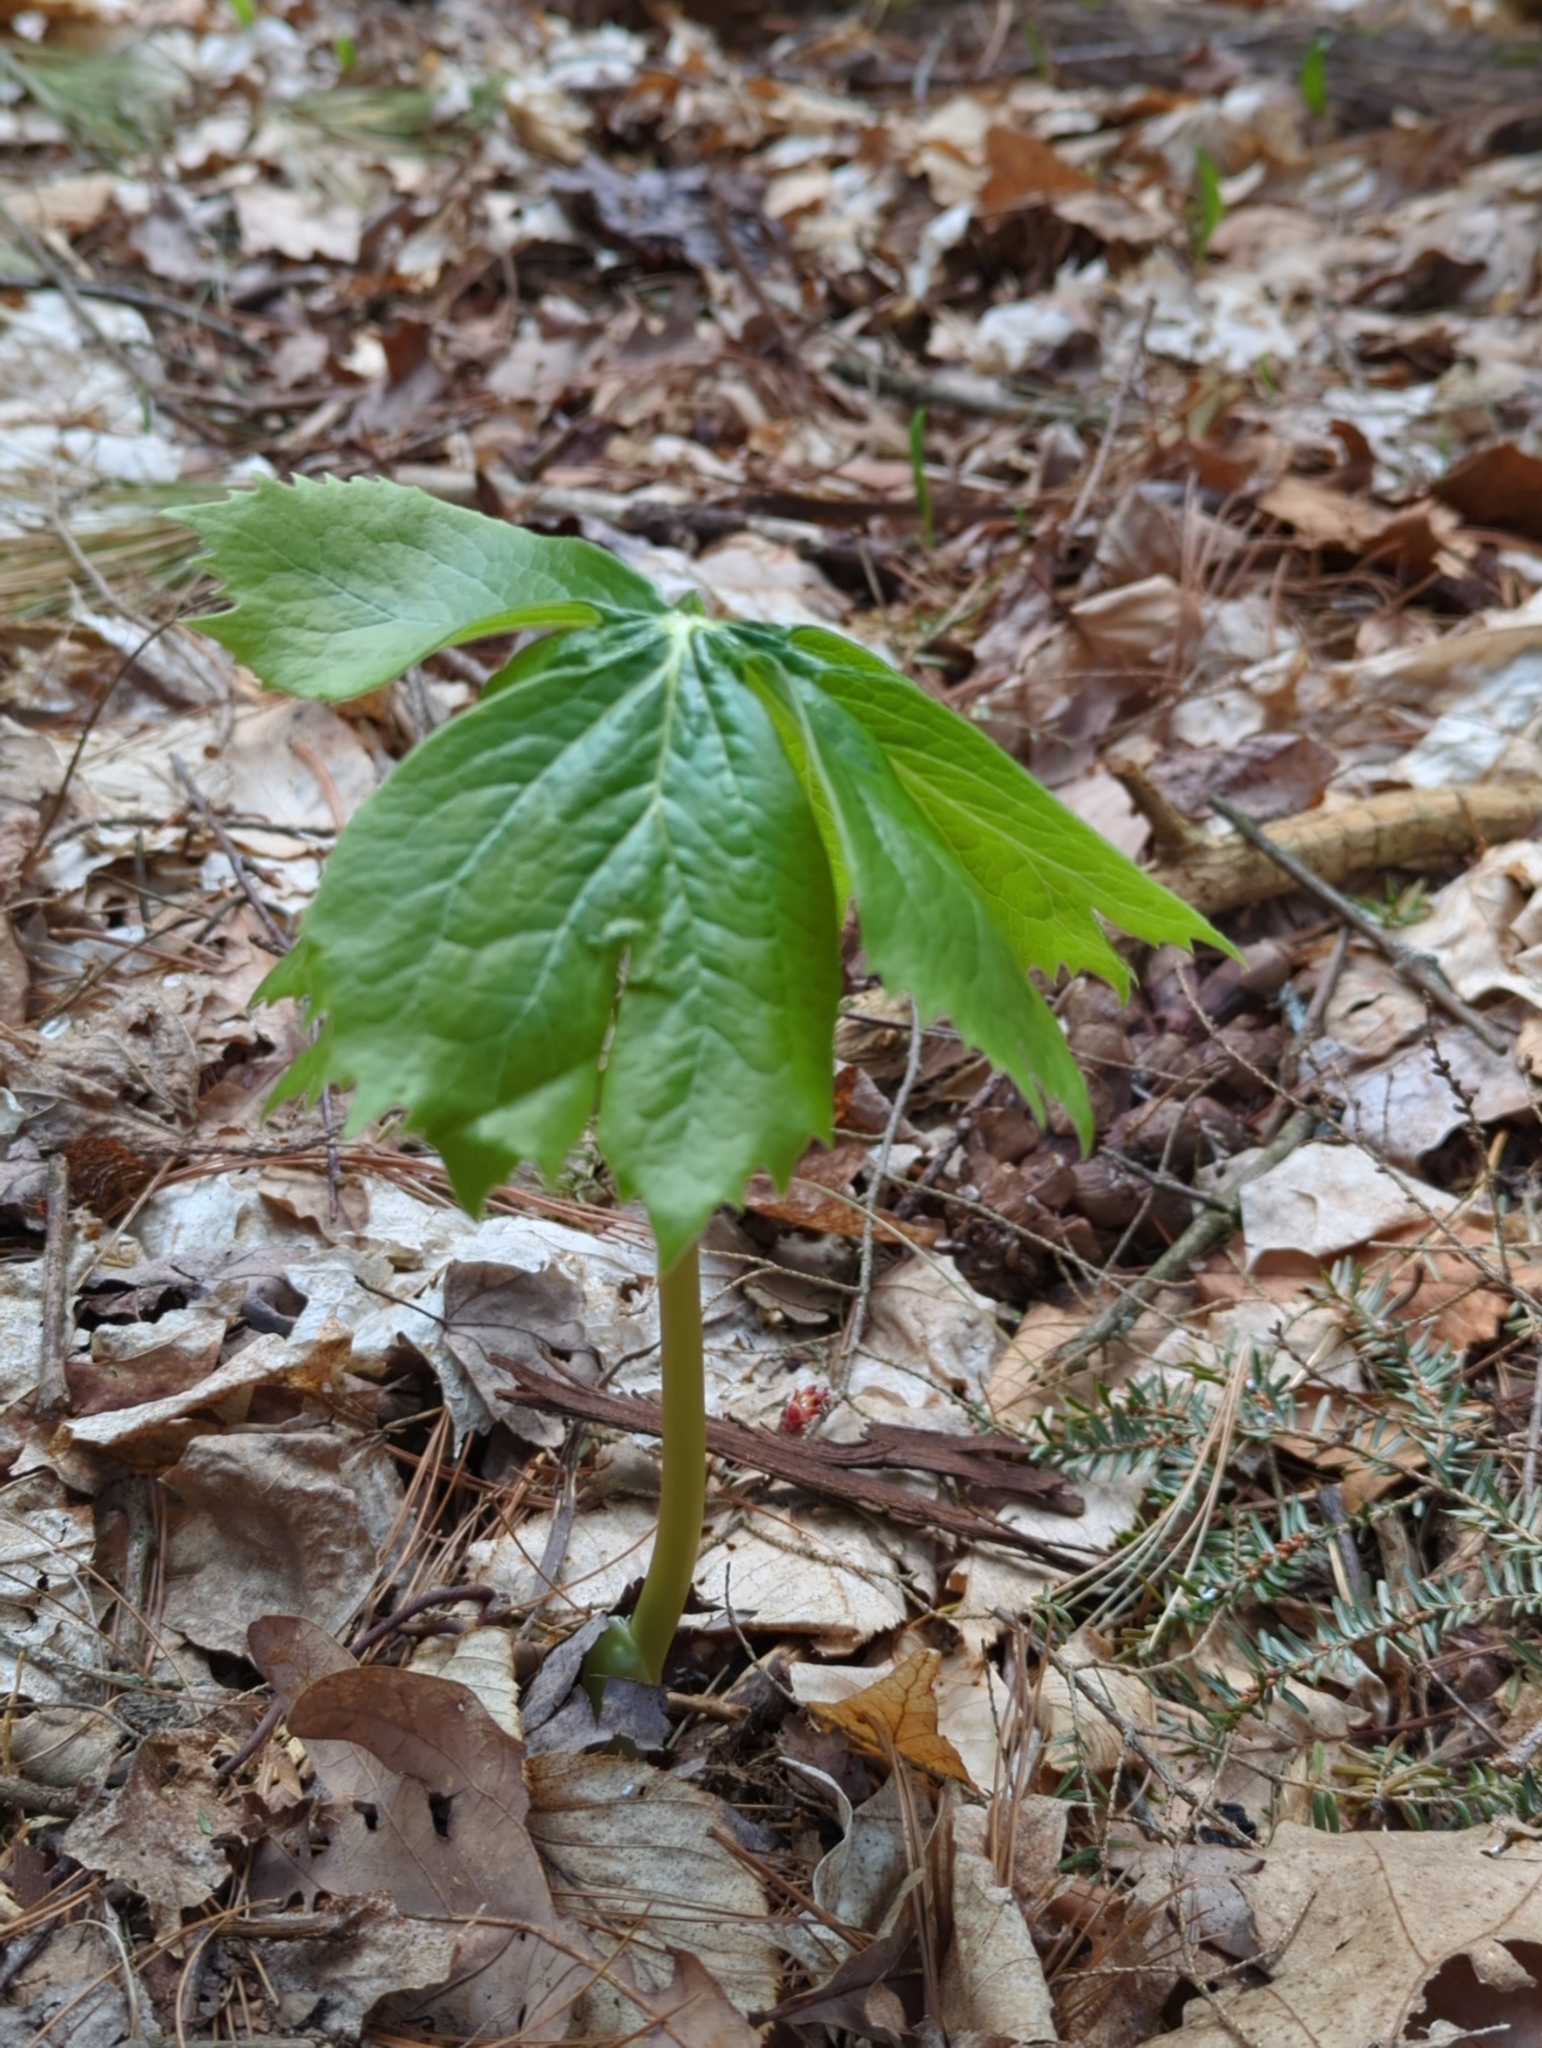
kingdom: Plantae
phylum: Tracheophyta
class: Magnoliopsida
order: Ranunculales
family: Berberidaceae
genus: Podophyllum
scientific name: Podophyllum peltatum
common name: Wild mandrake
